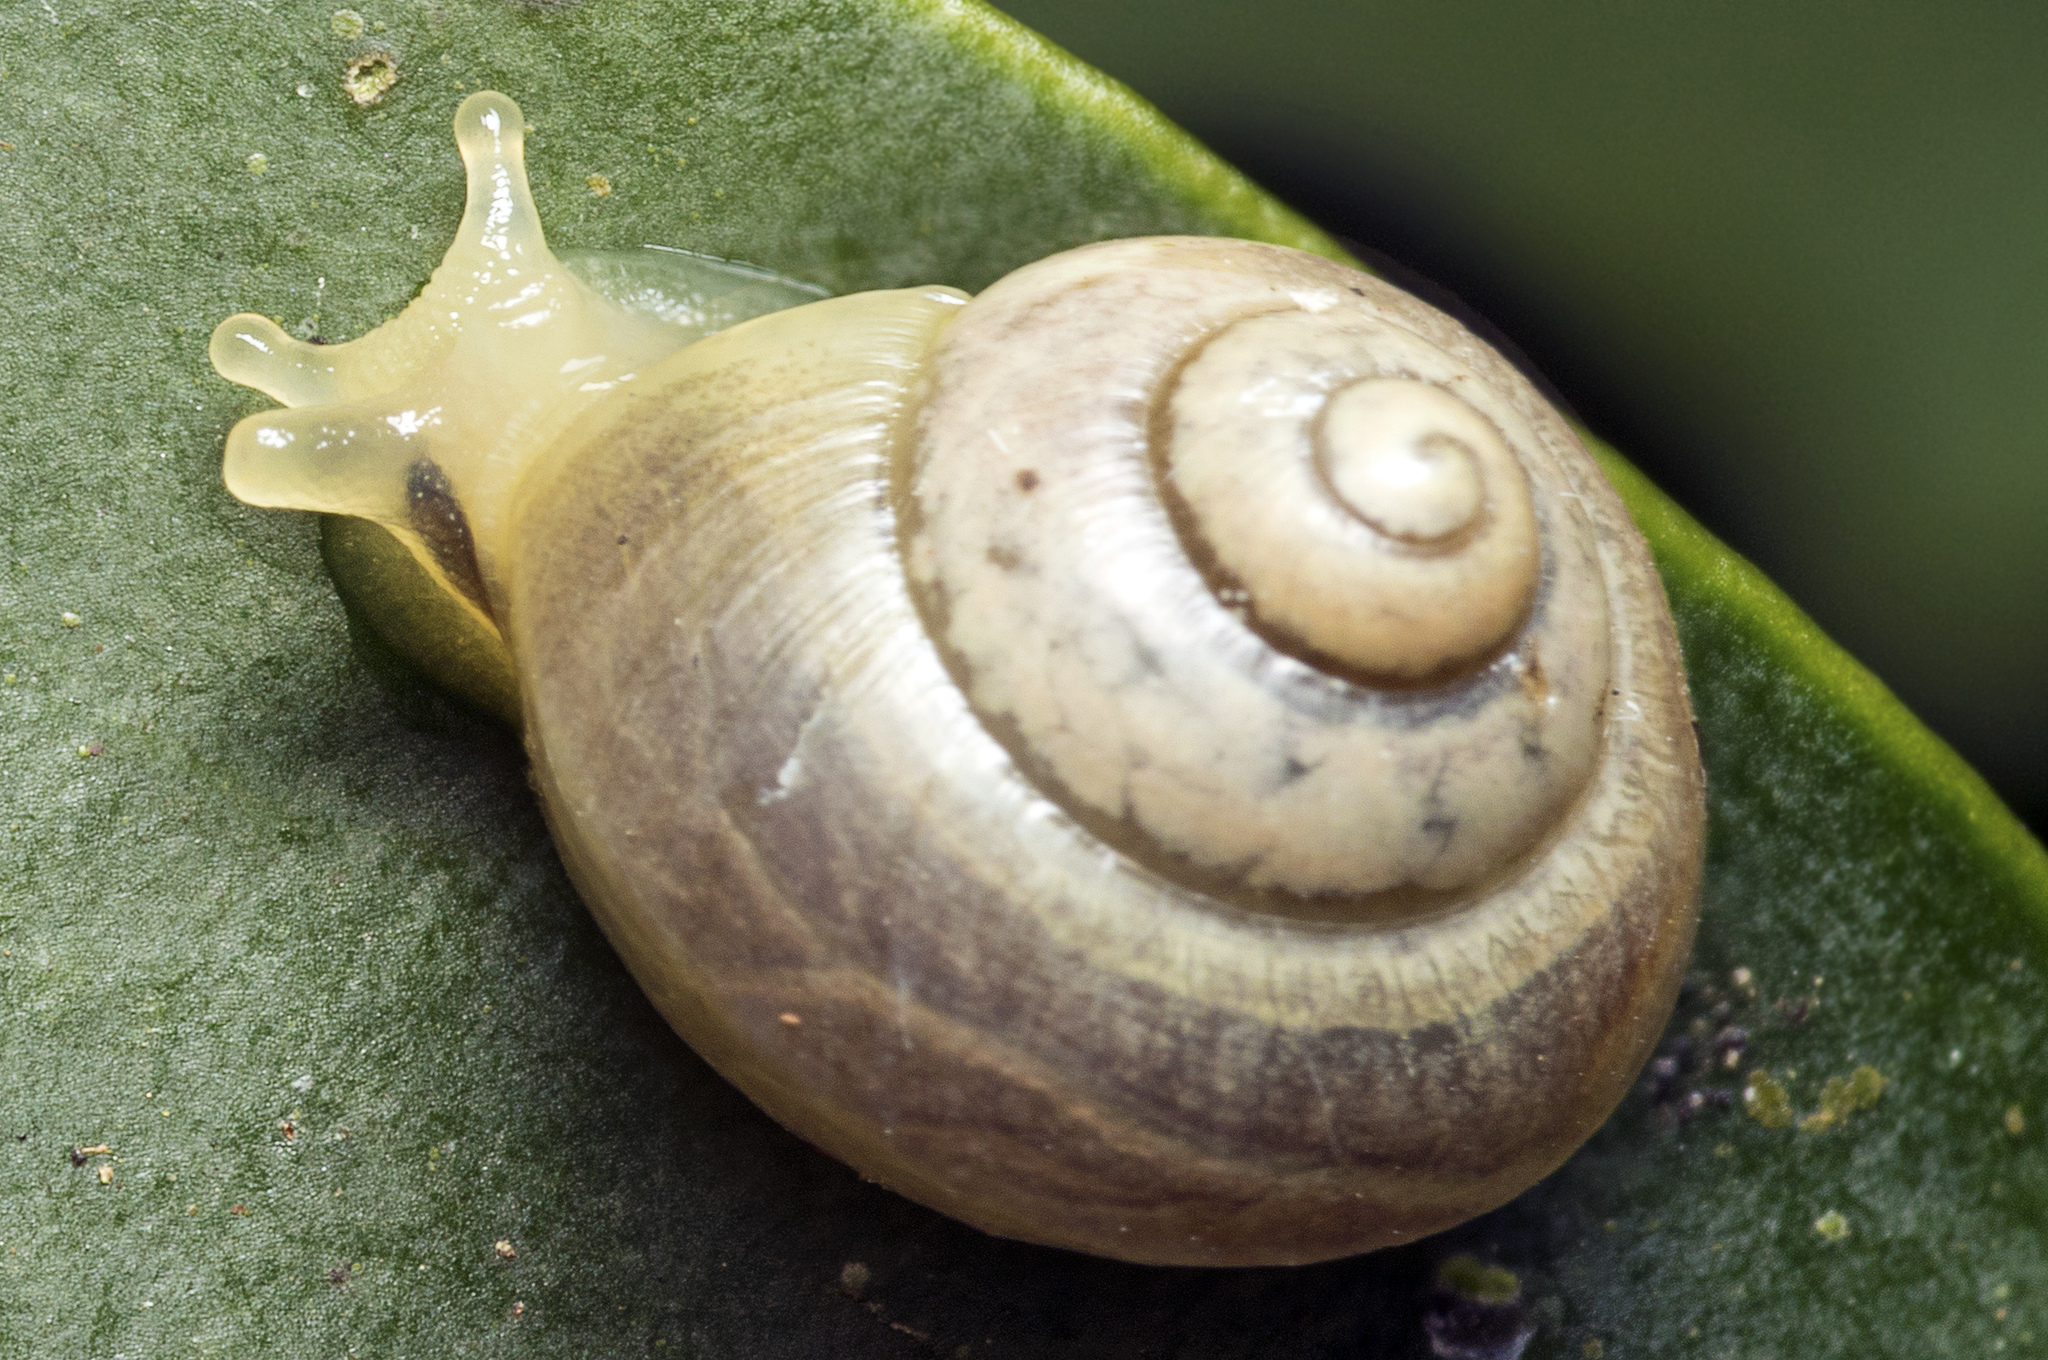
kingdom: Animalia
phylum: Mollusca
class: Gastropoda
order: Stylommatophora
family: Camaenidae
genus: Posorites
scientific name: Posorites conscendens
